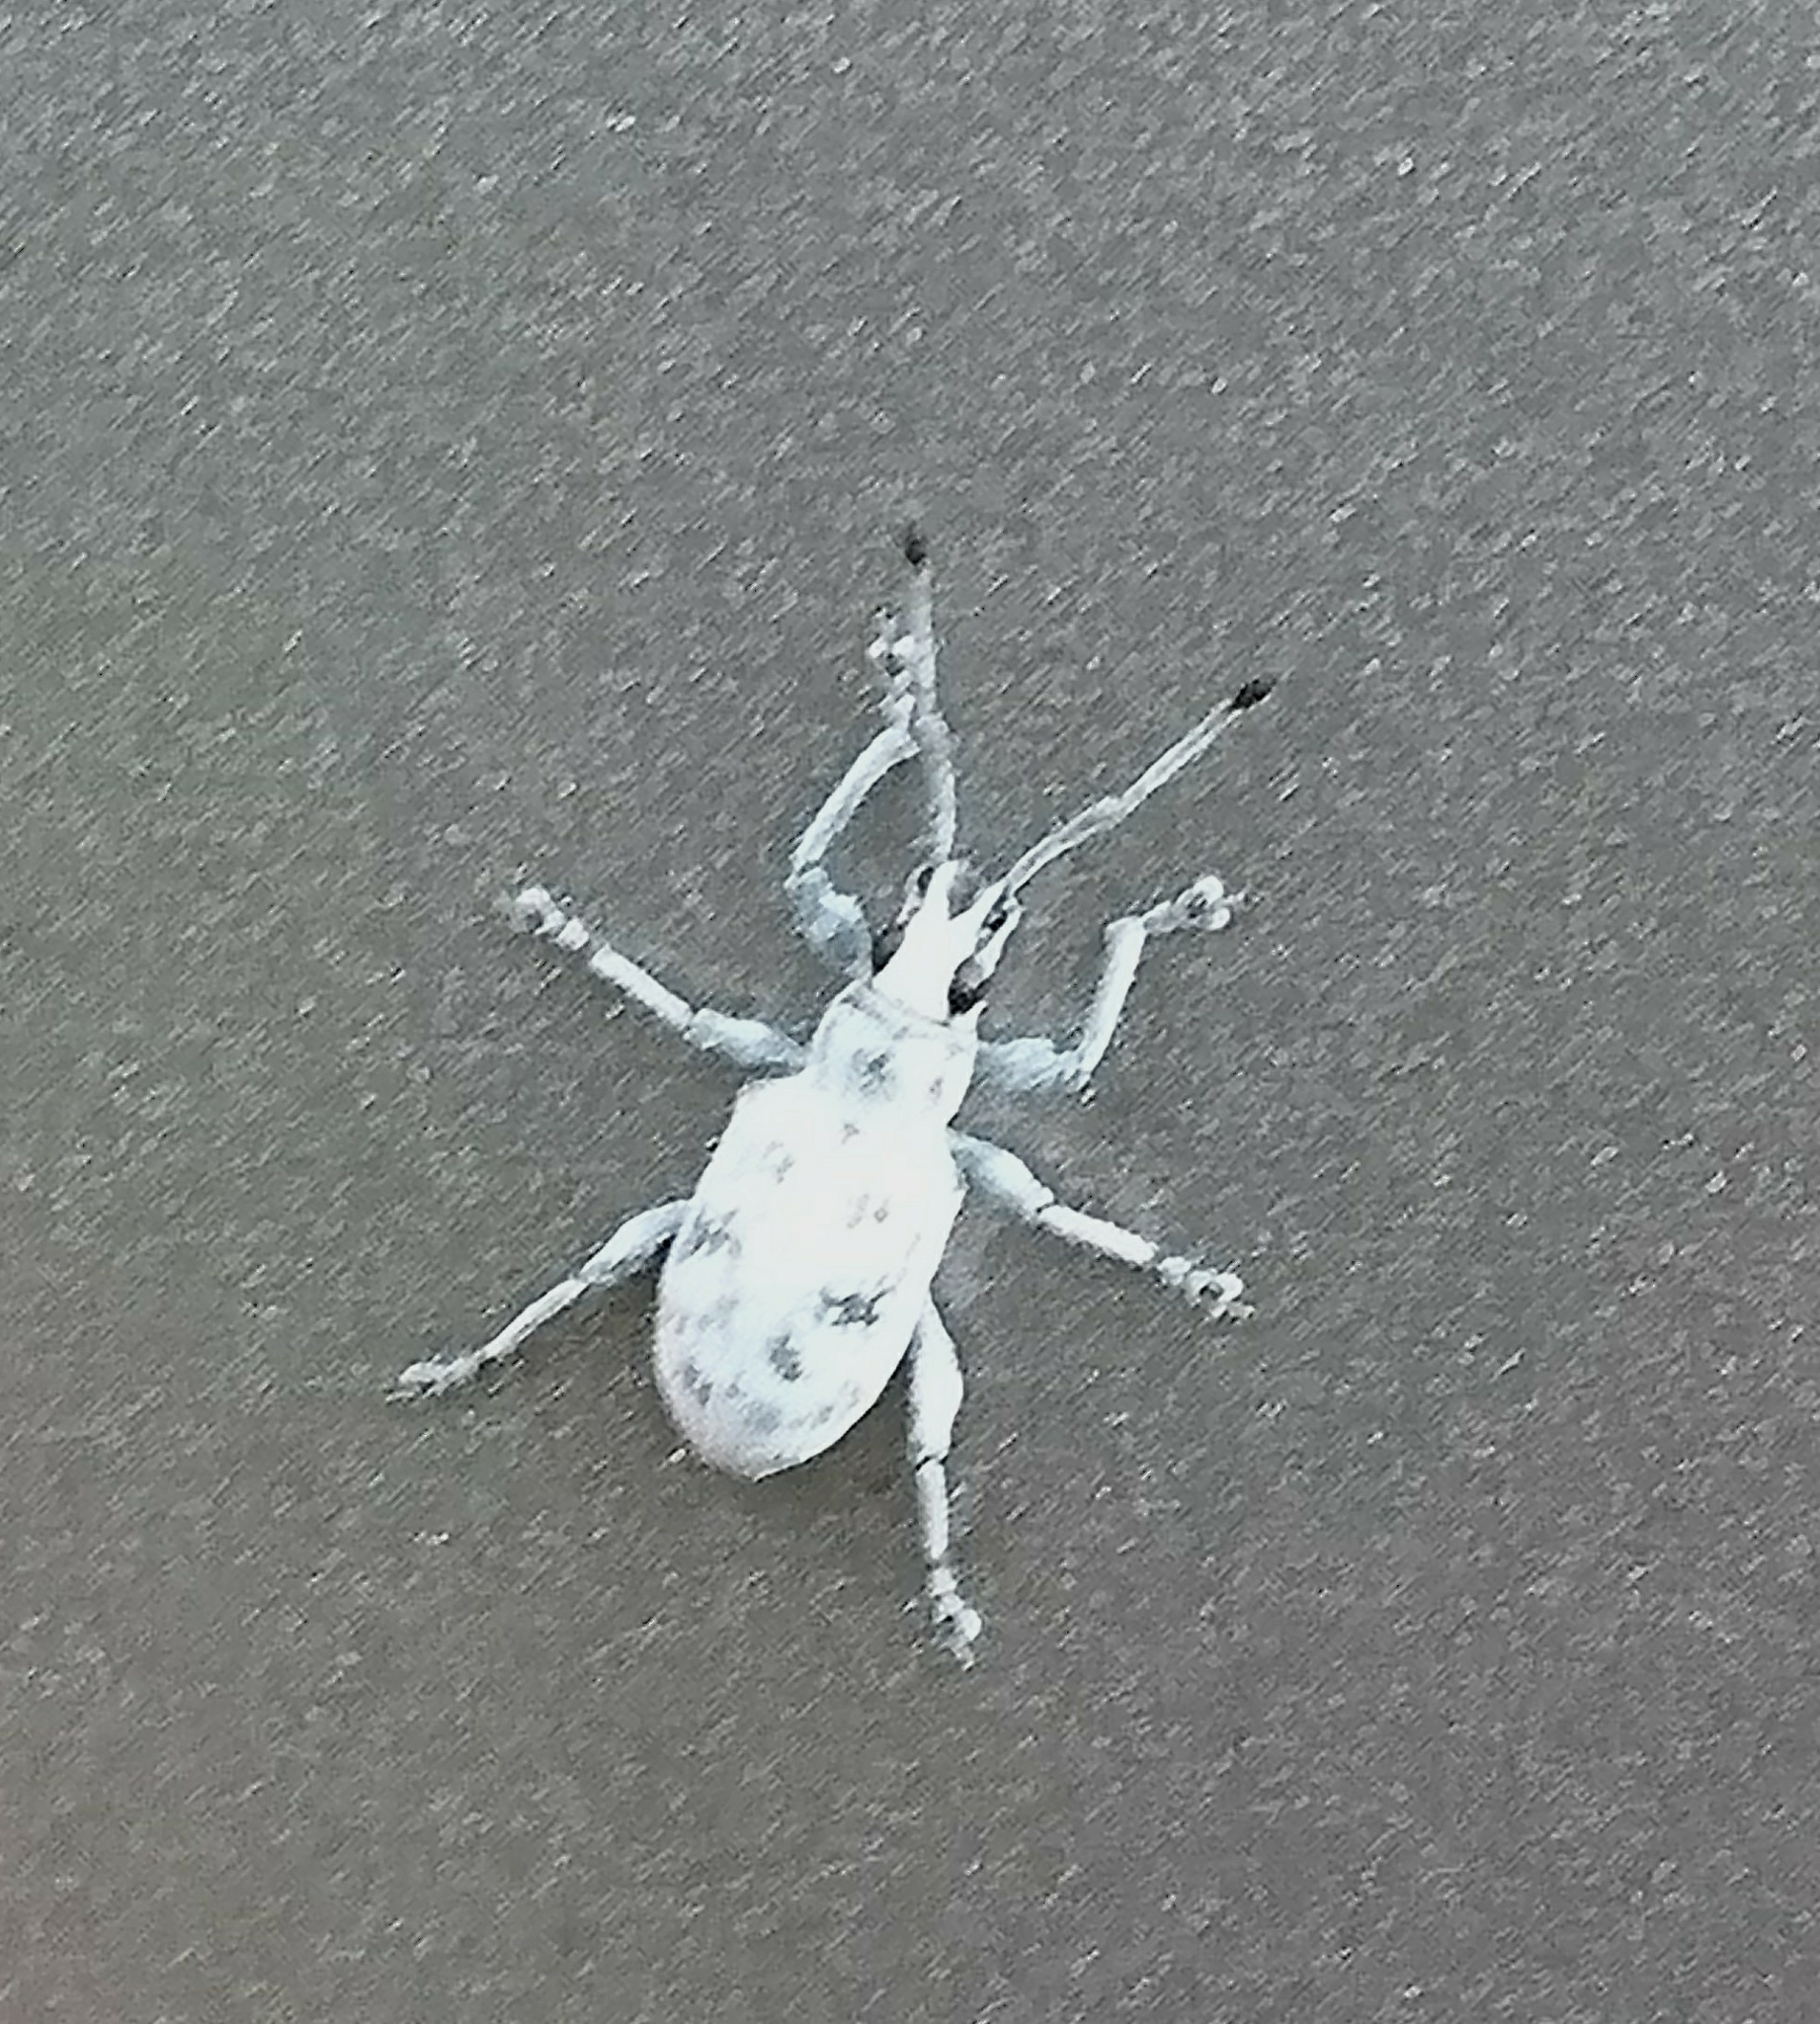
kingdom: Animalia
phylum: Arthropoda
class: Insecta
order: Coleoptera
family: Curculionidae
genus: Myllocerus
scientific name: Myllocerus undecimpustulatus
